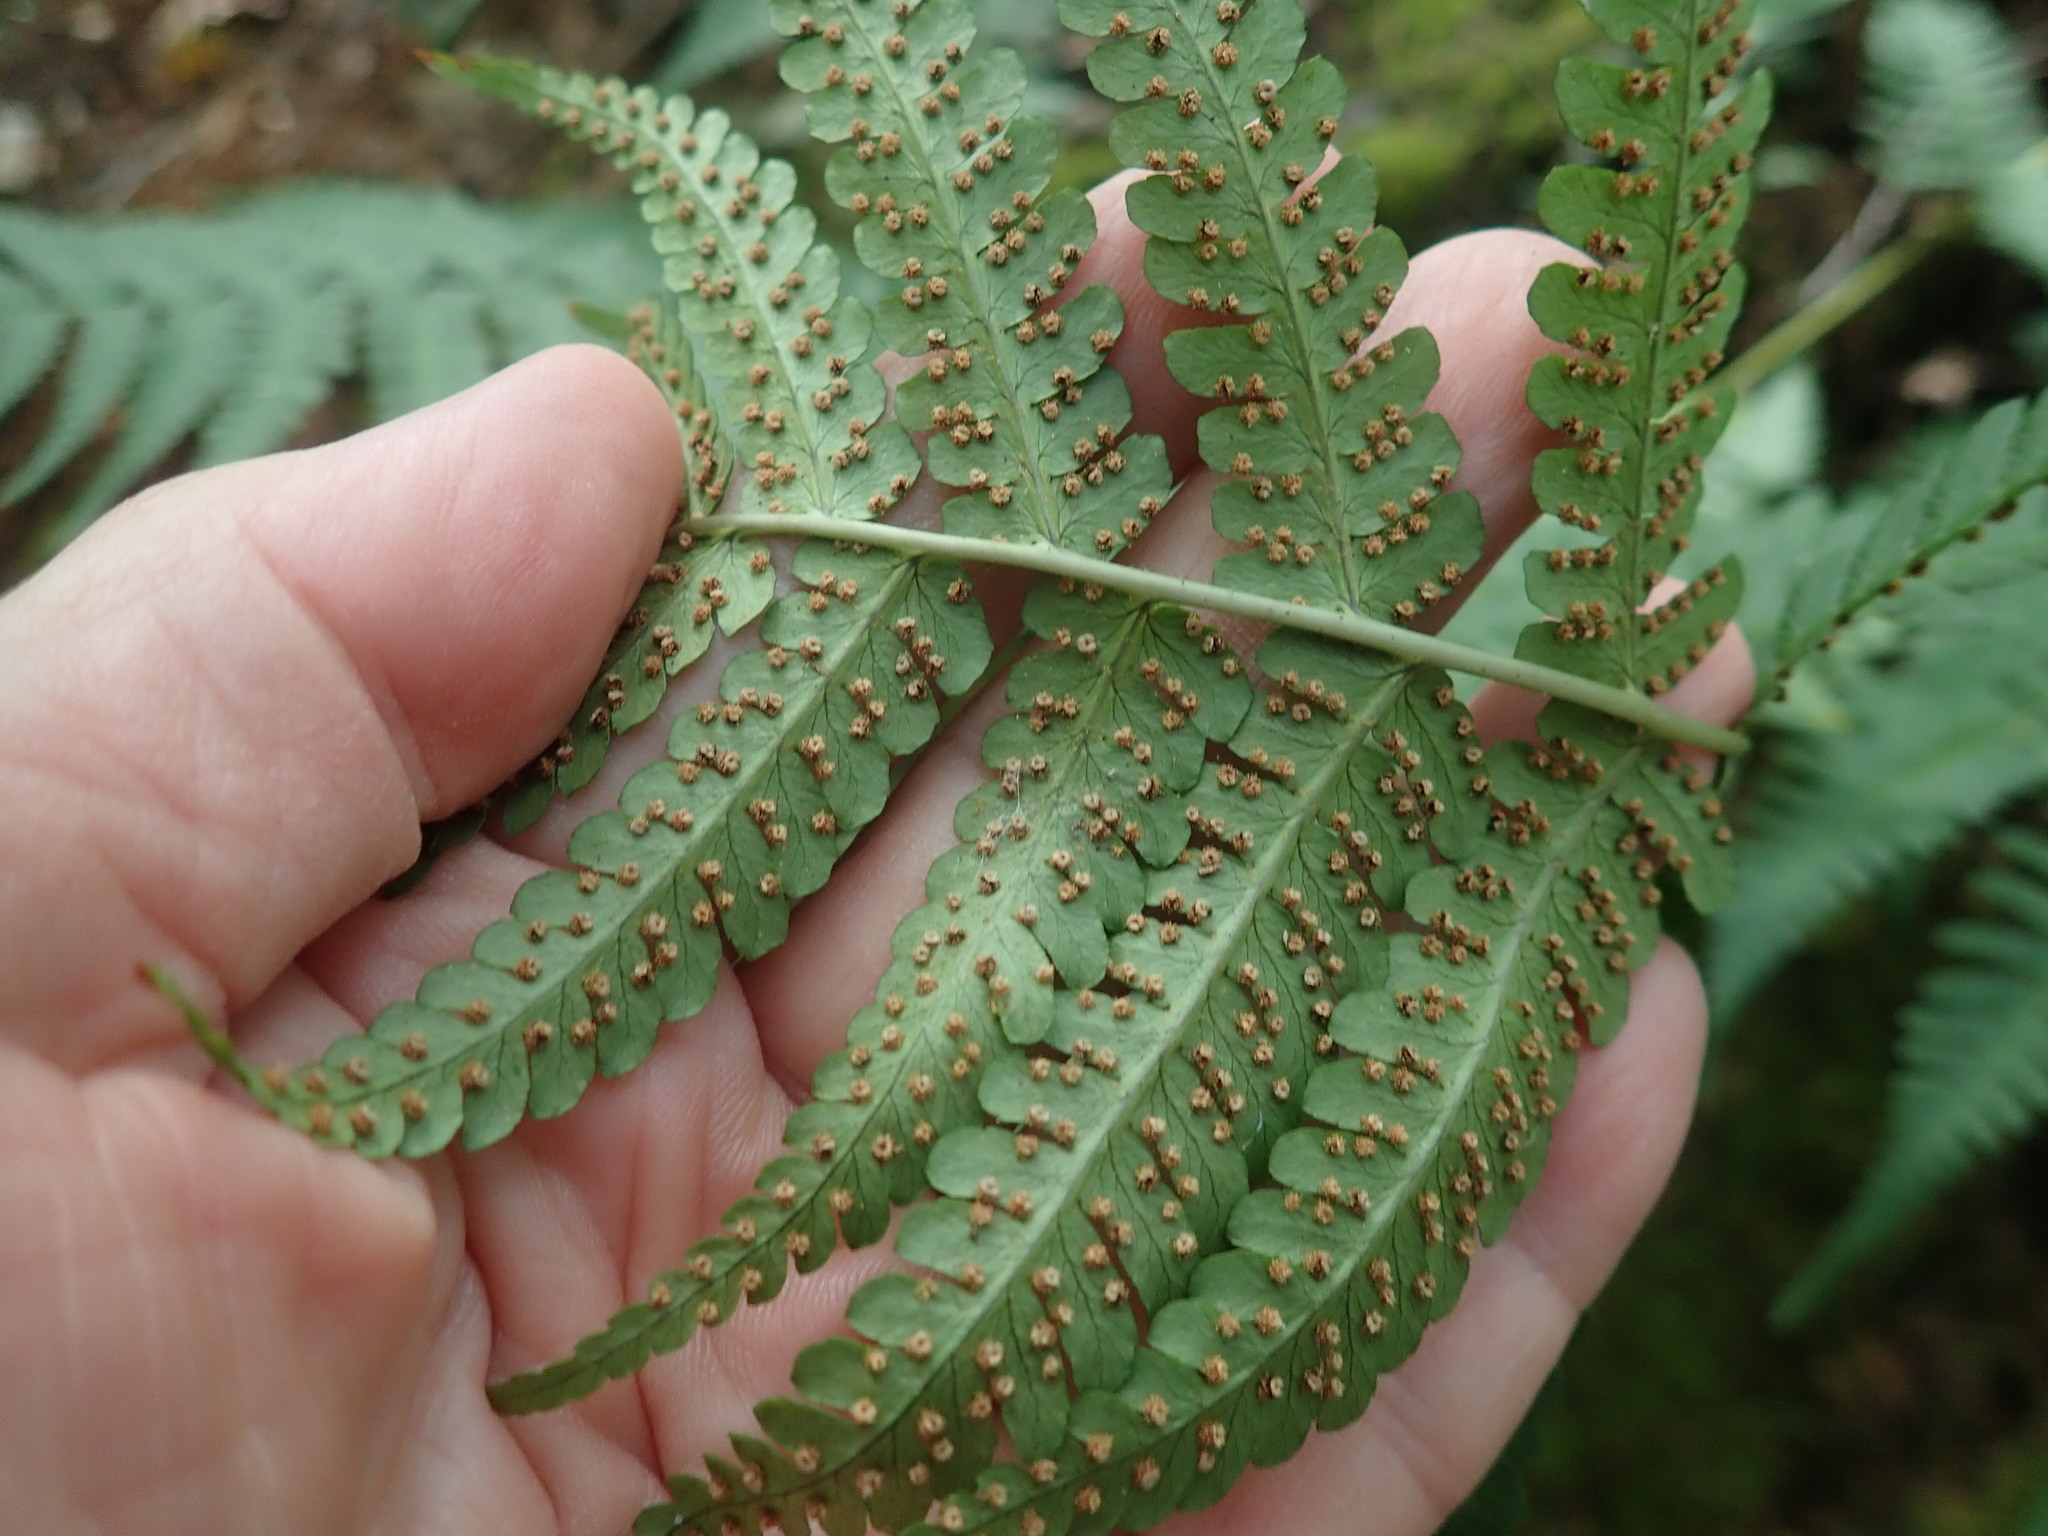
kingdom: Plantae
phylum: Tracheophyta
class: Polypodiopsida
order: Polypodiales
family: Dryopteridaceae
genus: Dryopteris
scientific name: Dryopteris marginalis
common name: Marginal wood fern
